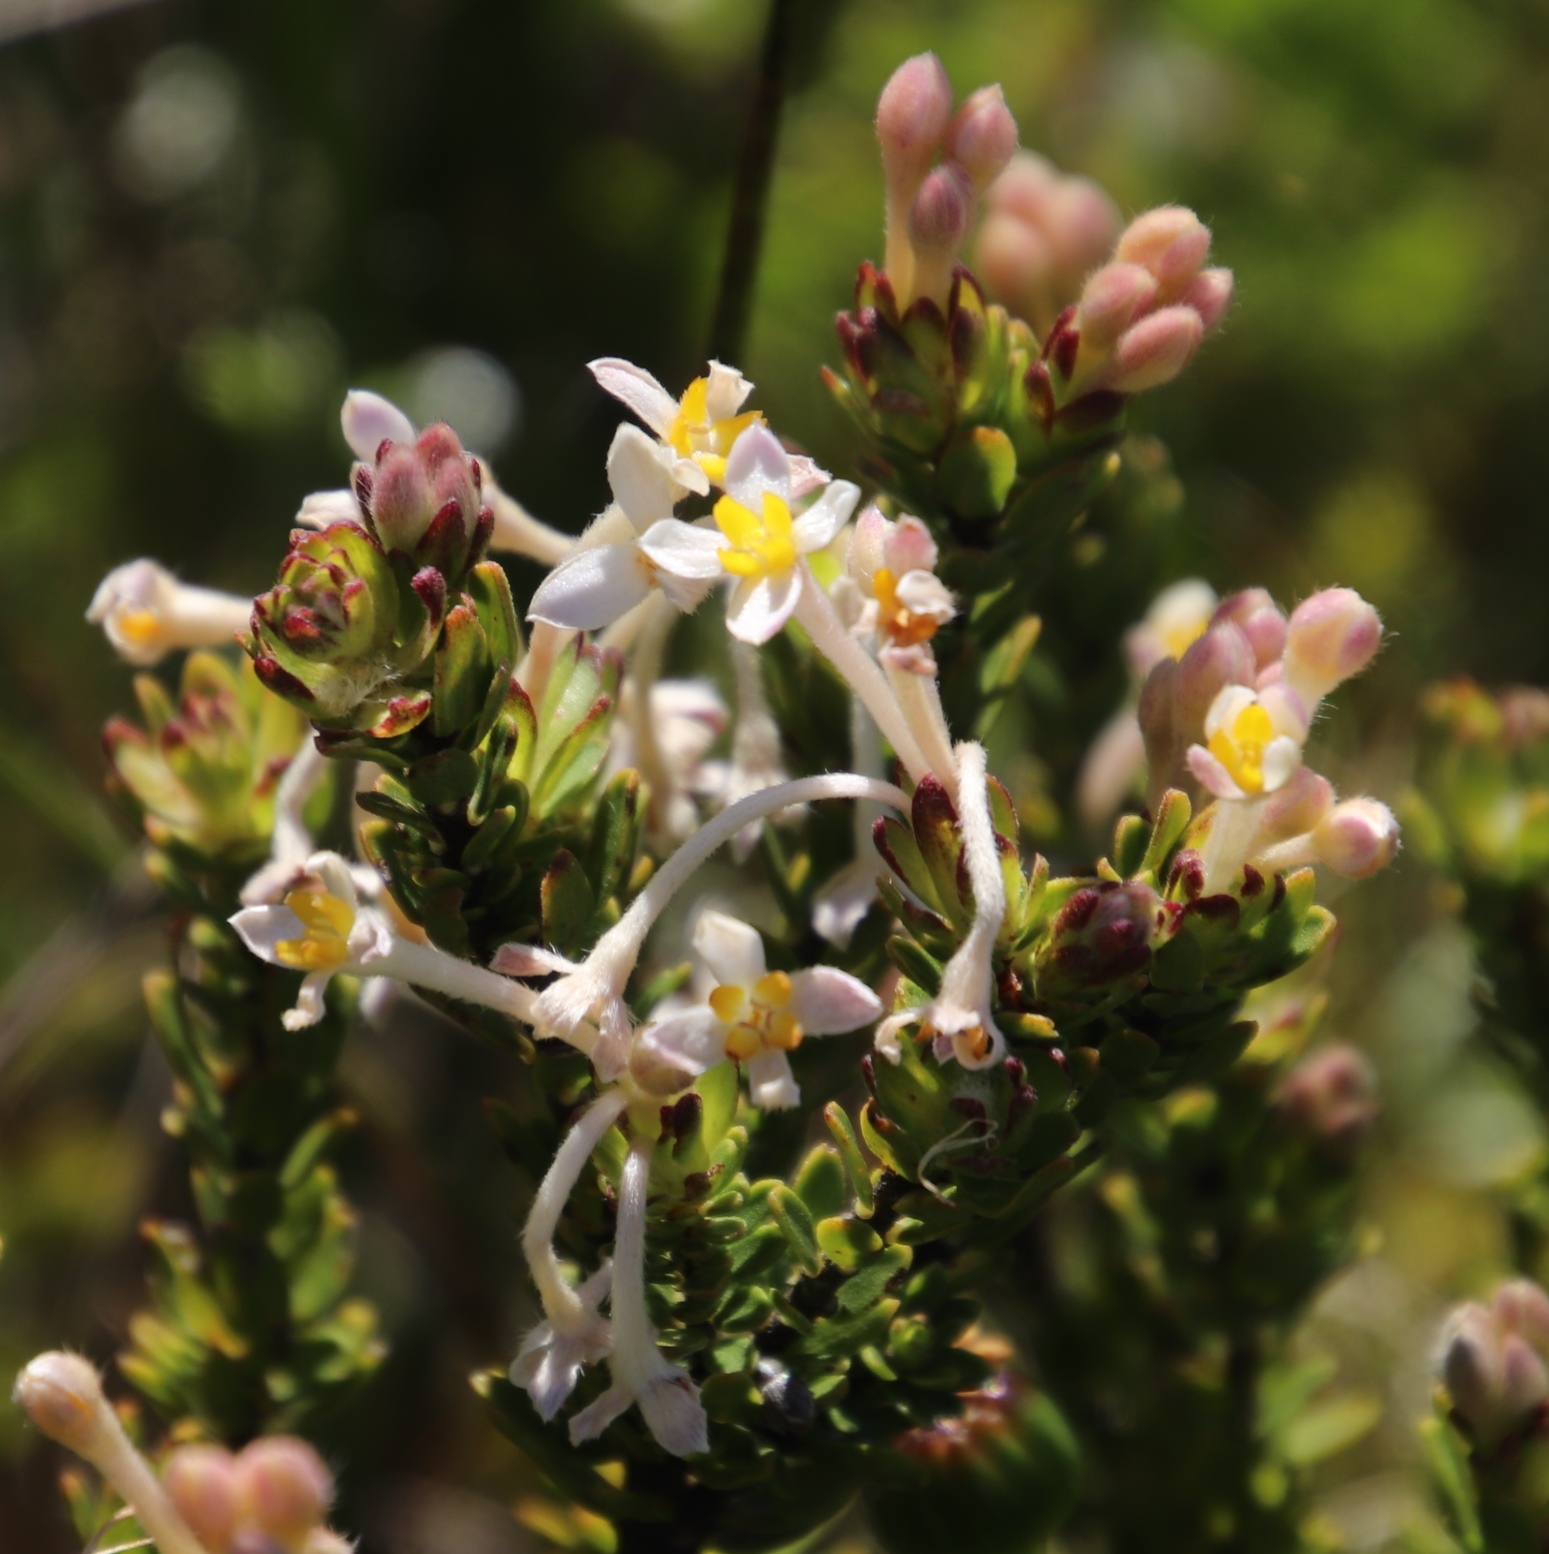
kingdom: Plantae
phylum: Tracheophyta
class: Magnoliopsida
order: Malvales
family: Thymelaeaceae
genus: Gnidia
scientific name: Gnidia tomentosa
